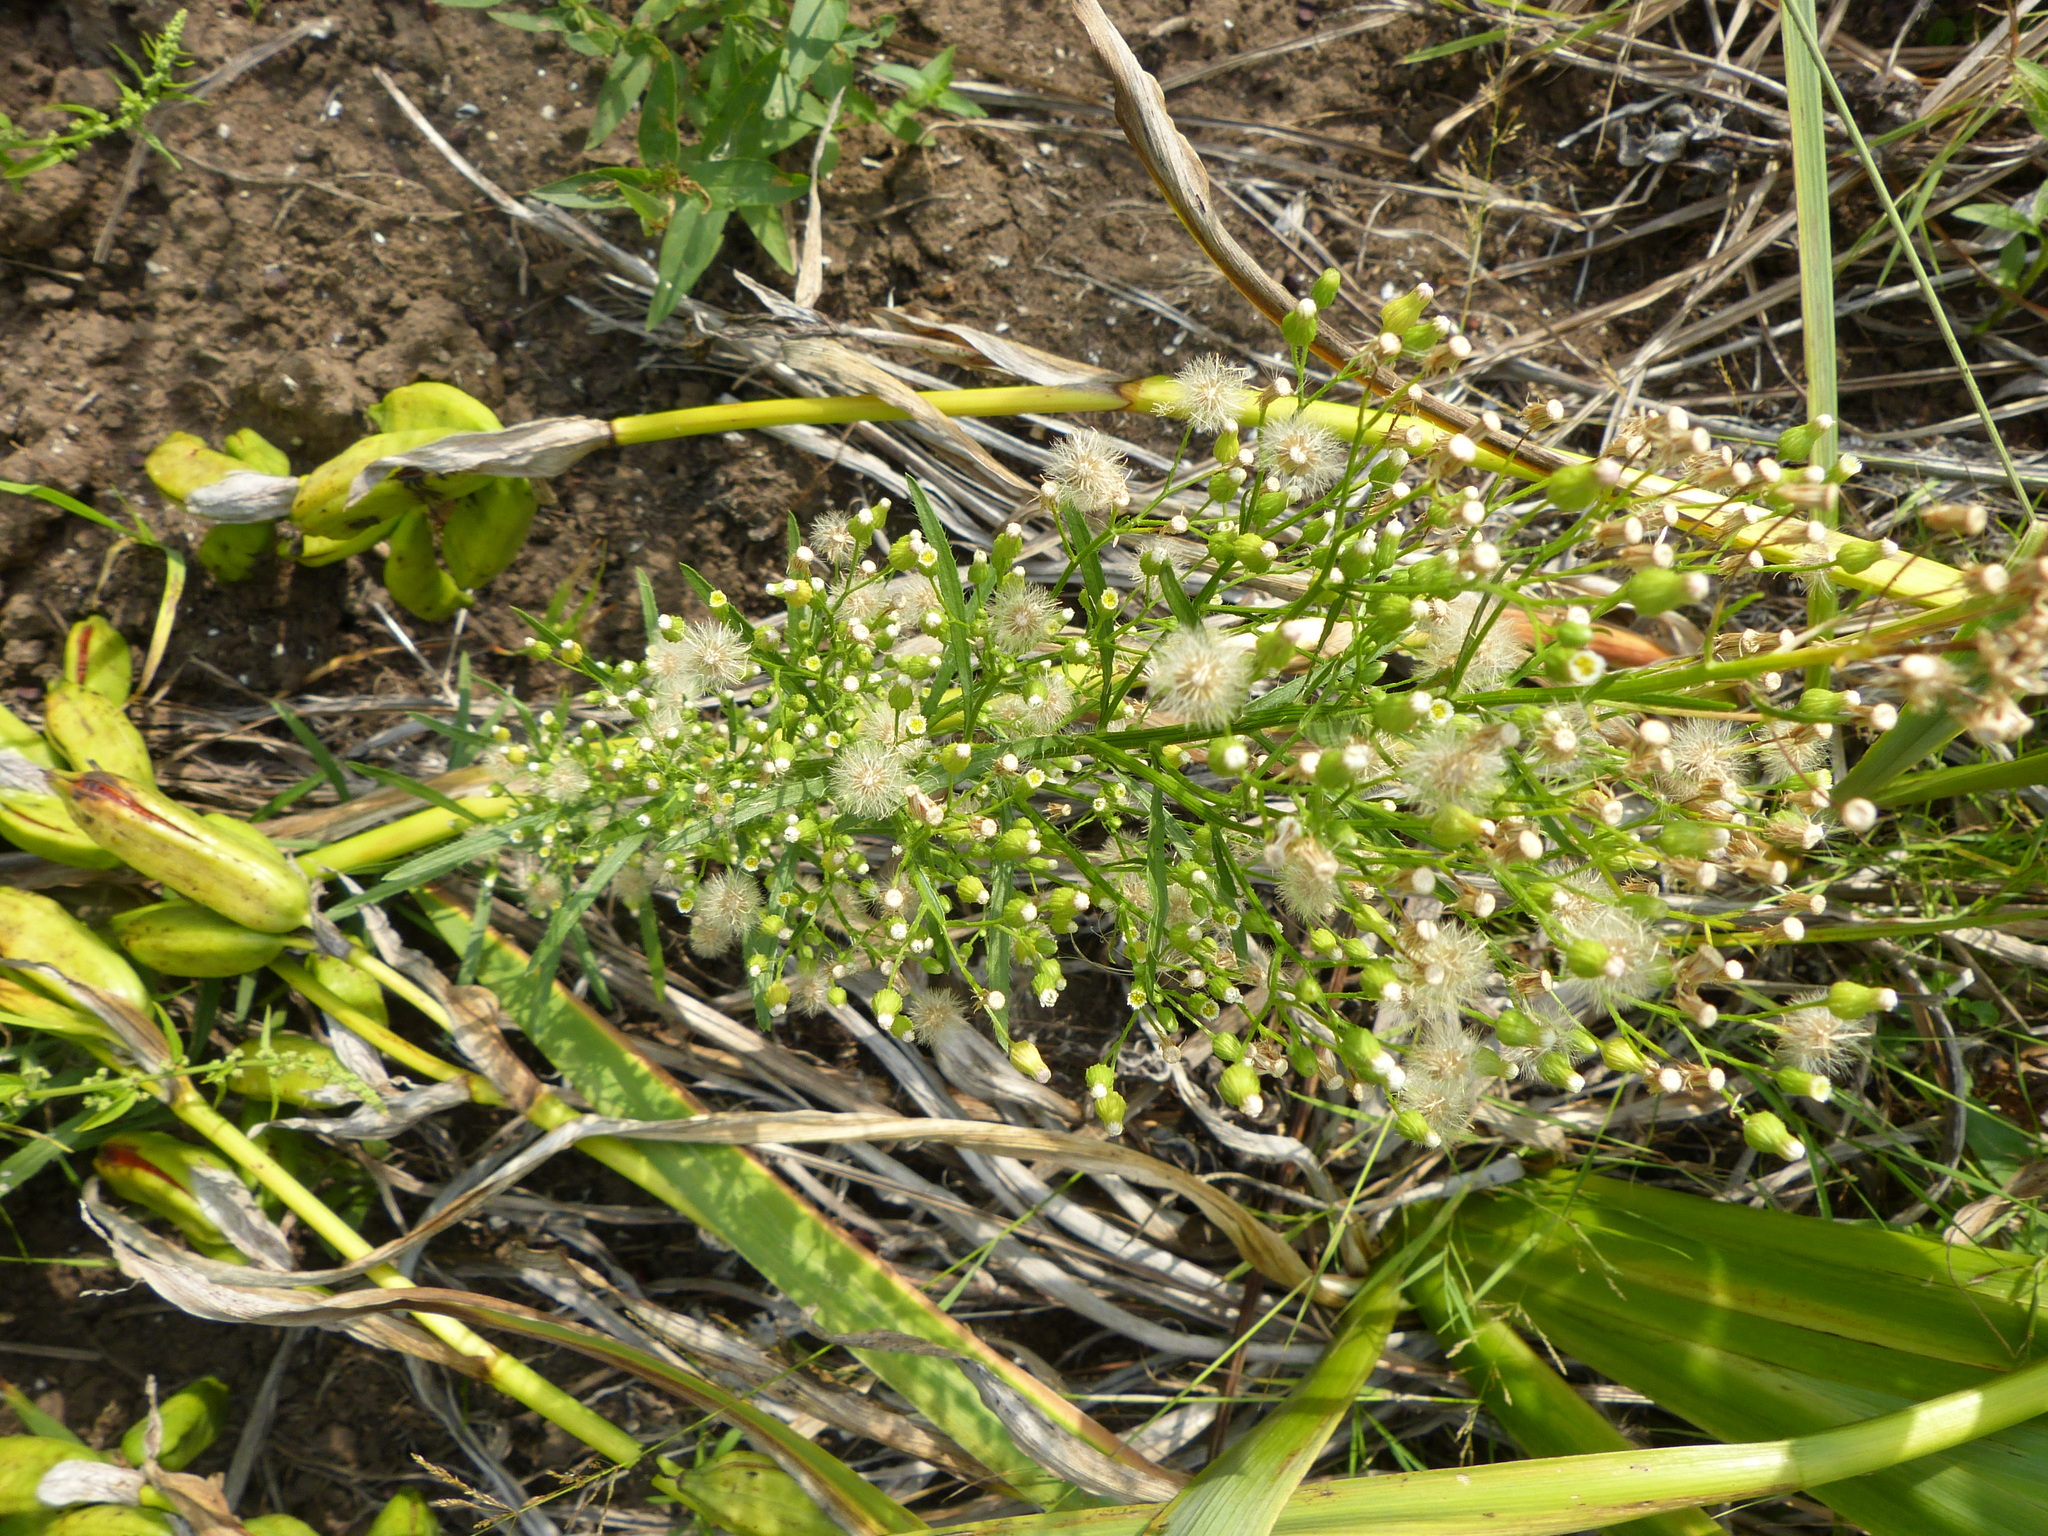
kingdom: Plantae
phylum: Tracheophyta
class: Magnoliopsida
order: Asterales
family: Asteraceae
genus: Erigeron
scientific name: Erigeron canadensis
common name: Canadian fleabane
